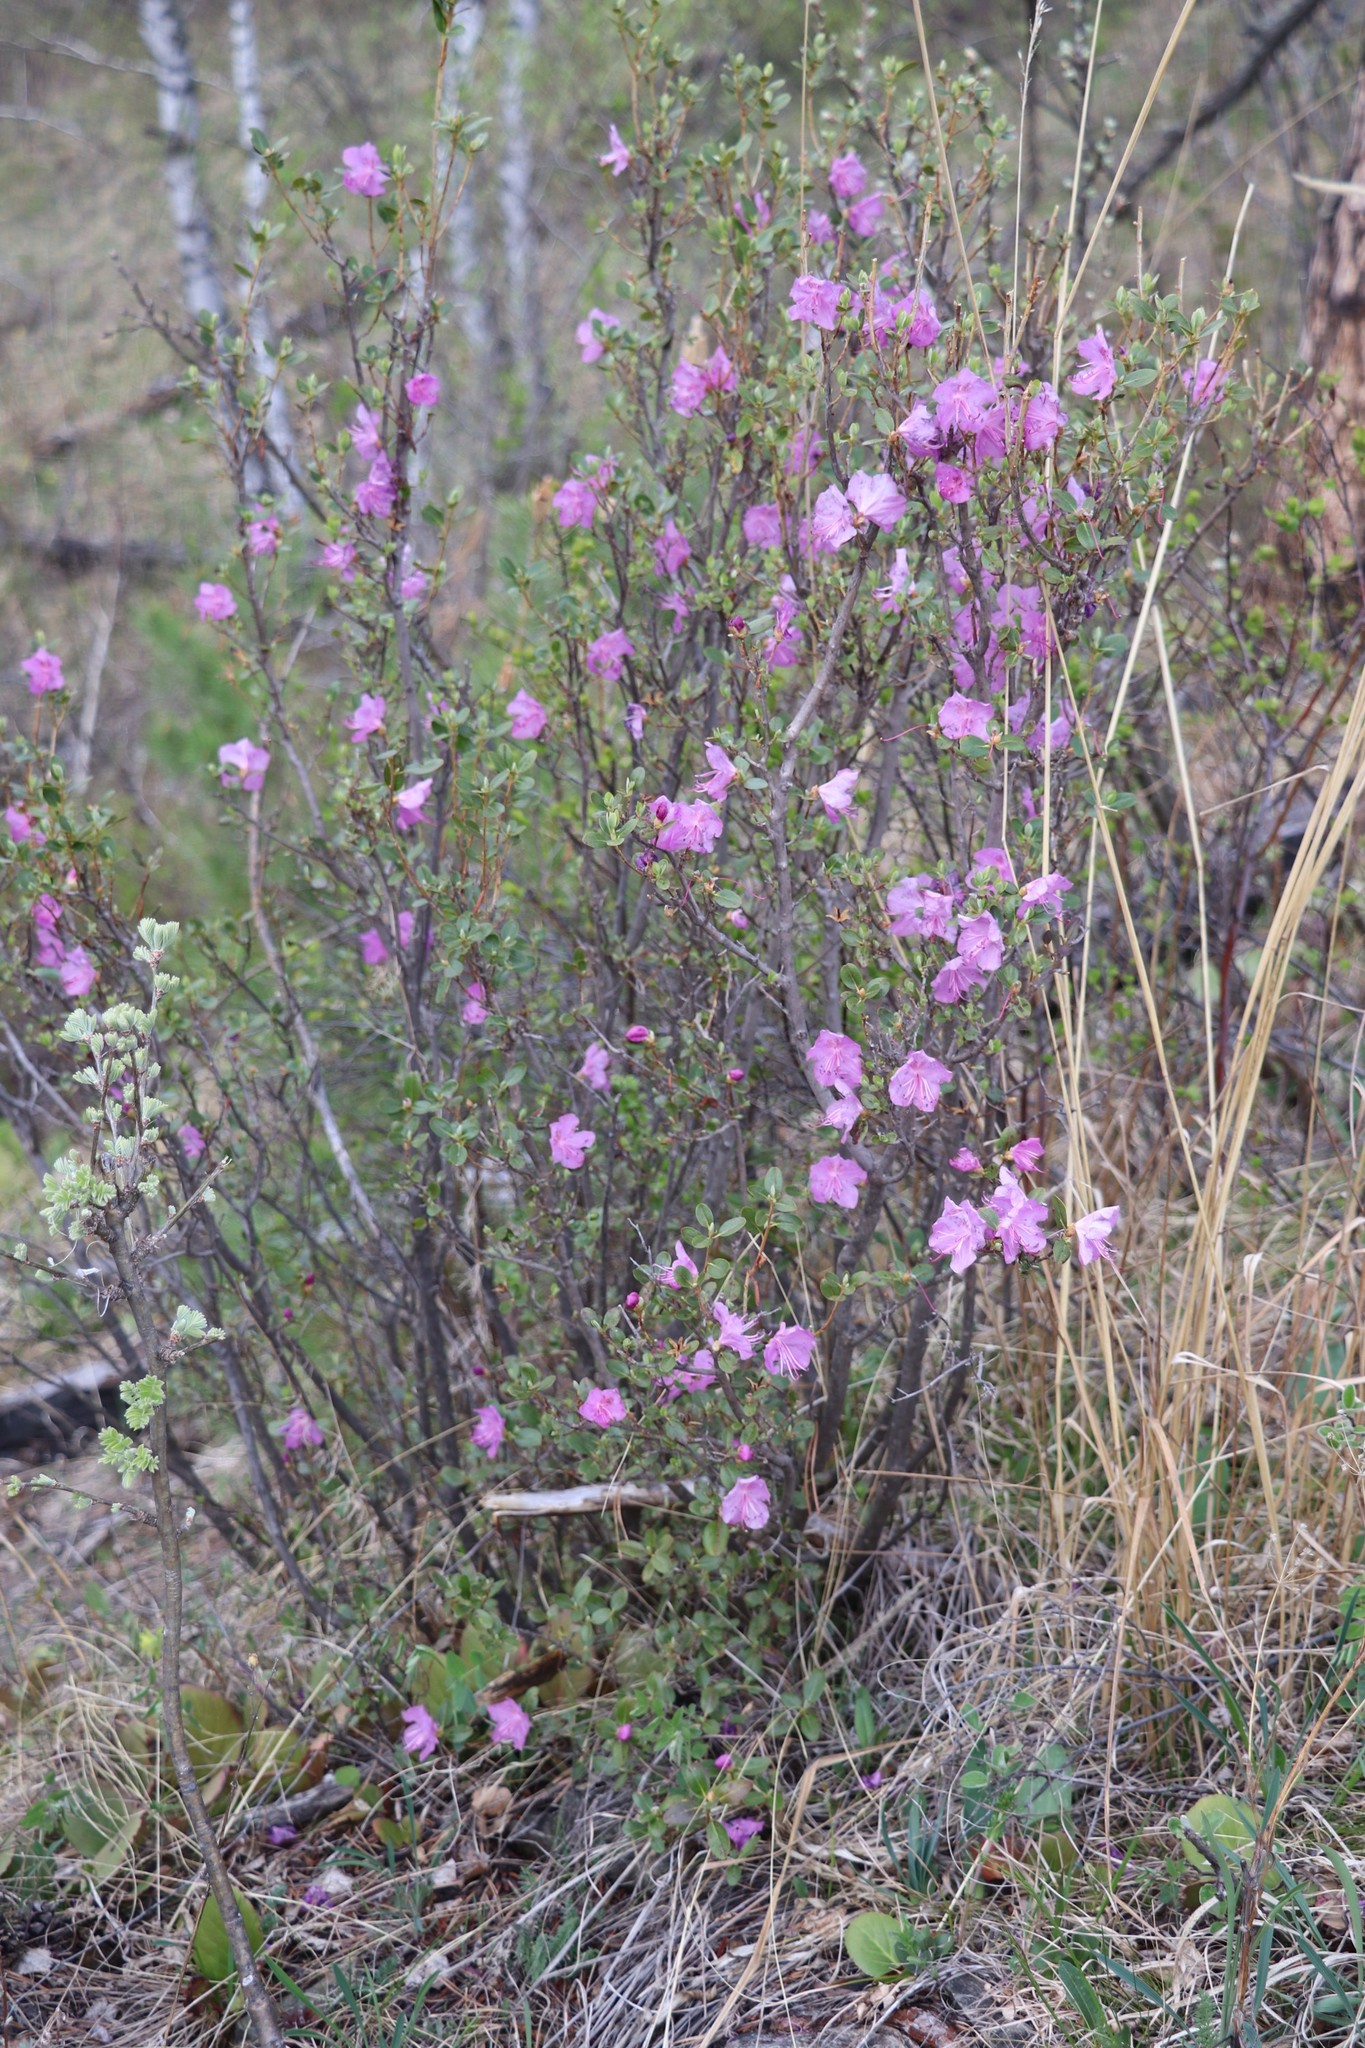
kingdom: Plantae
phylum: Tracheophyta
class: Magnoliopsida
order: Ericales
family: Ericaceae
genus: Rhododendron
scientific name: Rhododendron dauricum
